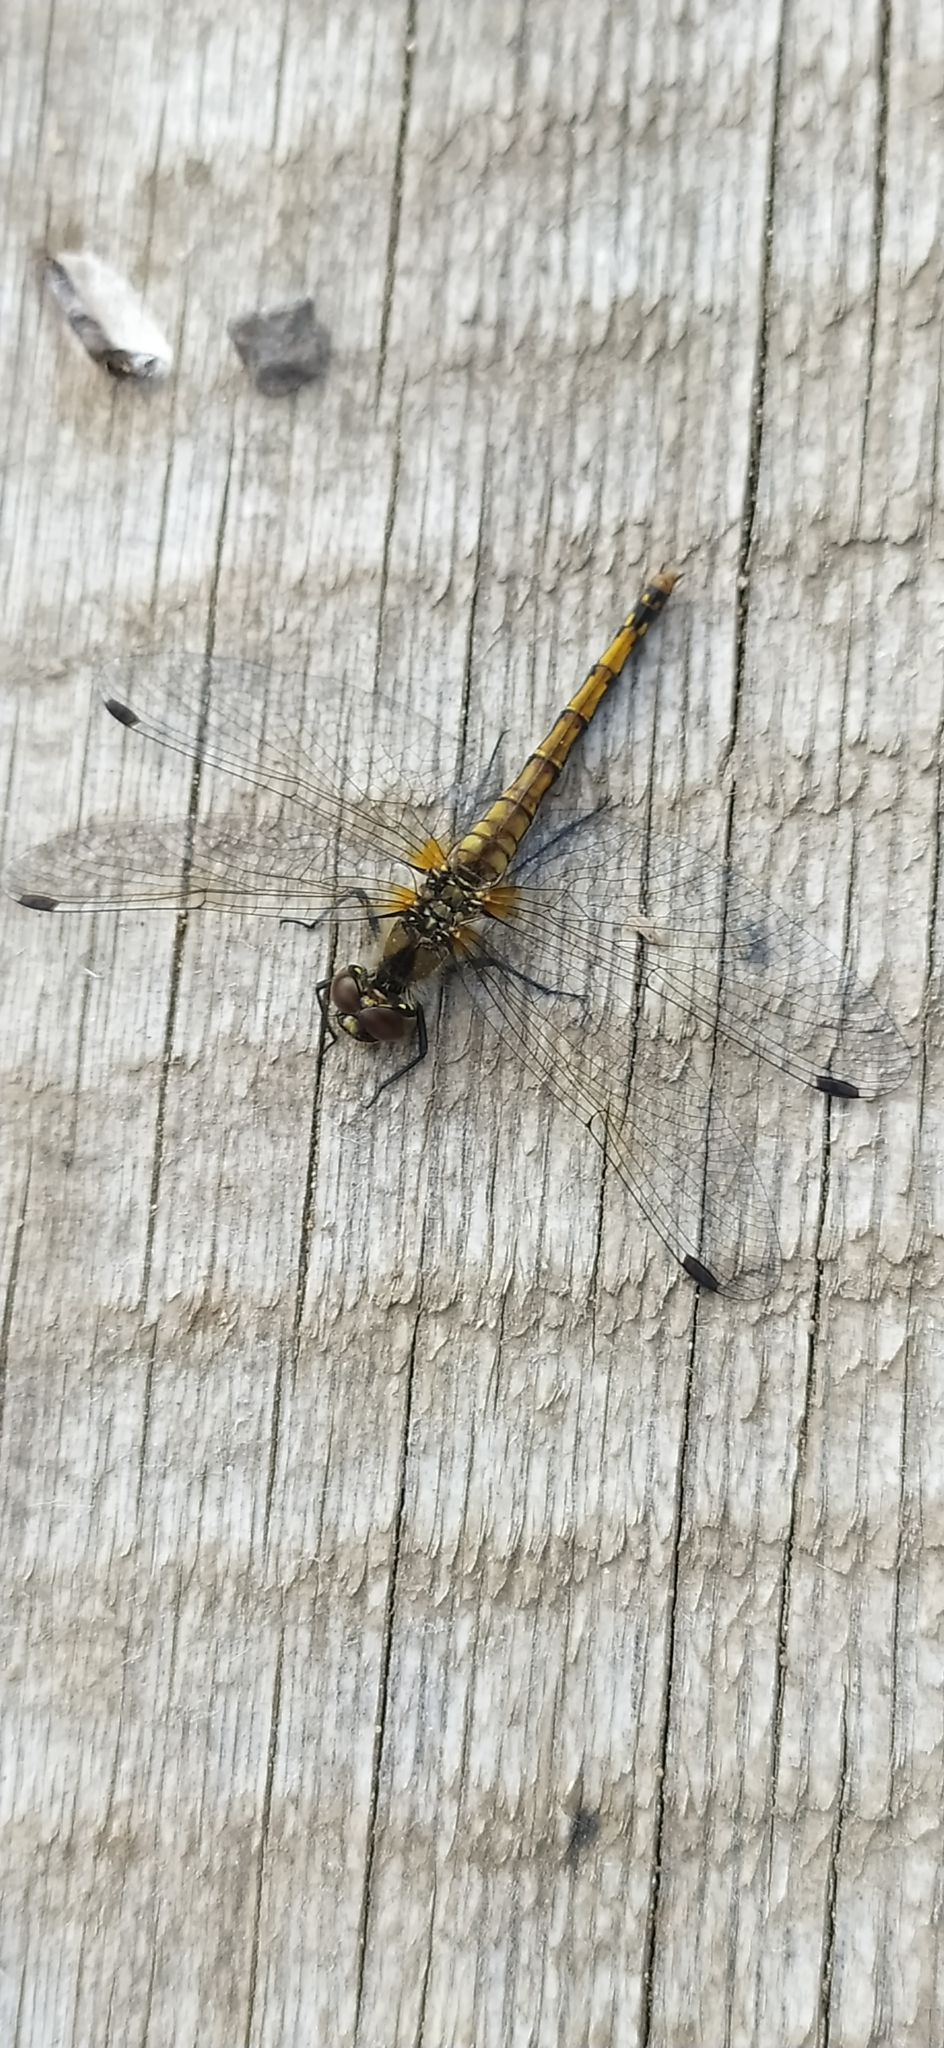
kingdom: Animalia
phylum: Arthropoda
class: Insecta
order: Odonata
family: Libellulidae
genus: Sympetrum
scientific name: Sympetrum danae
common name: Black darter
